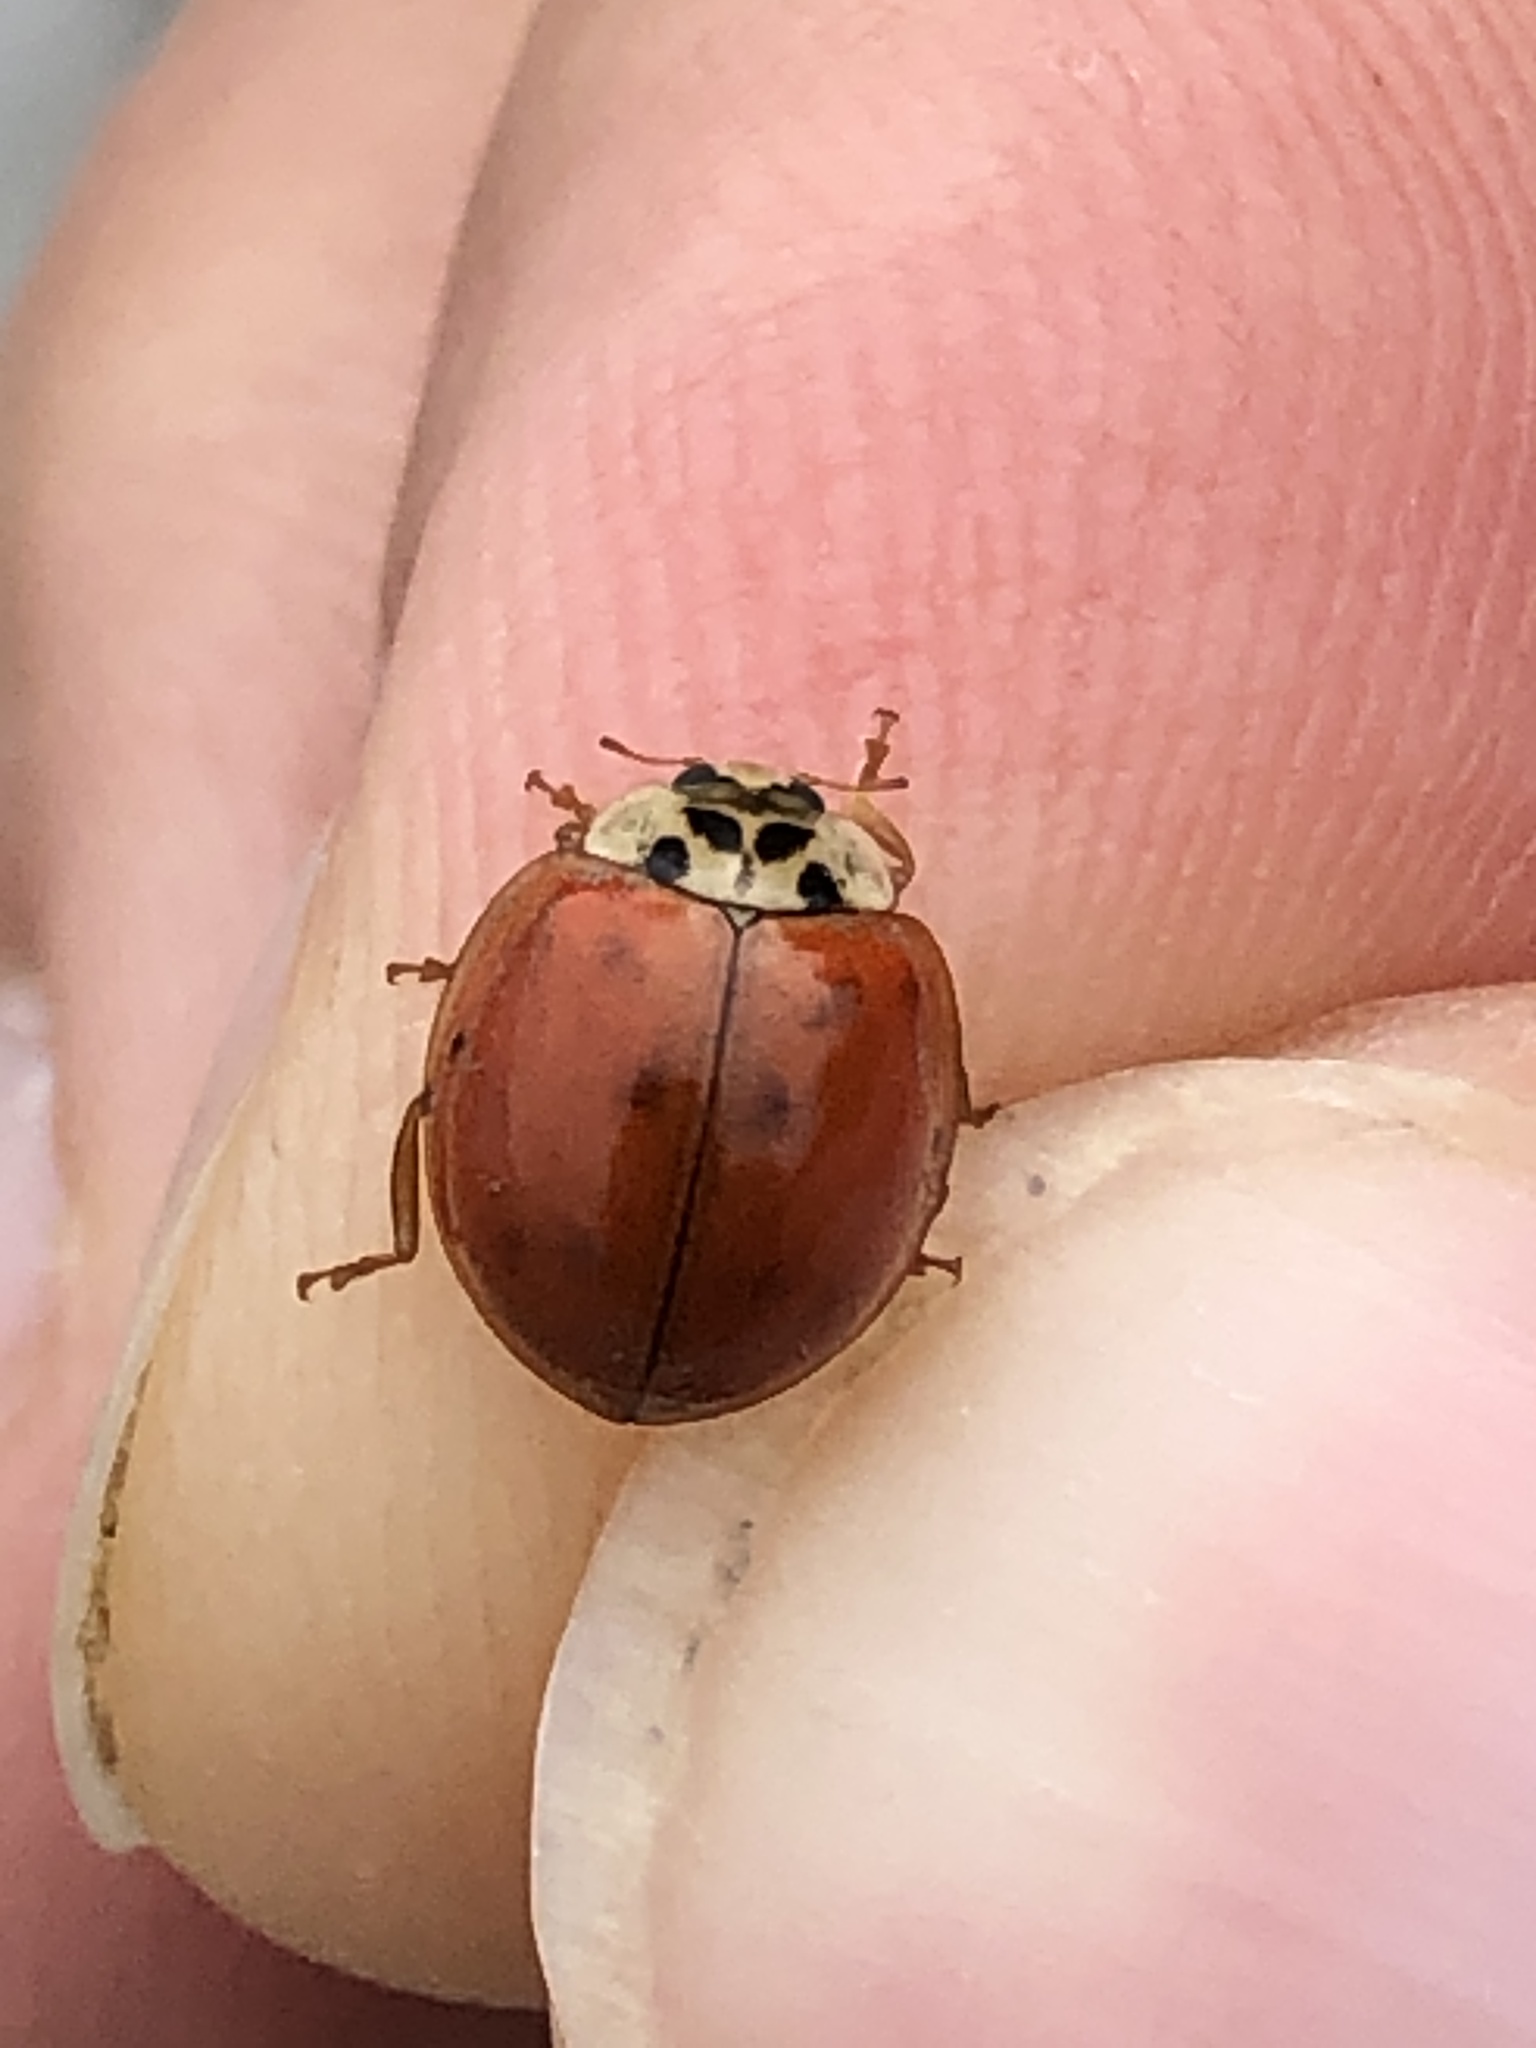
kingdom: Animalia
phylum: Arthropoda
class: Insecta
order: Coleoptera
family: Coccinellidae
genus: Harmonia
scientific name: Harmonia axyridis
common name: Harlequin ladybird
